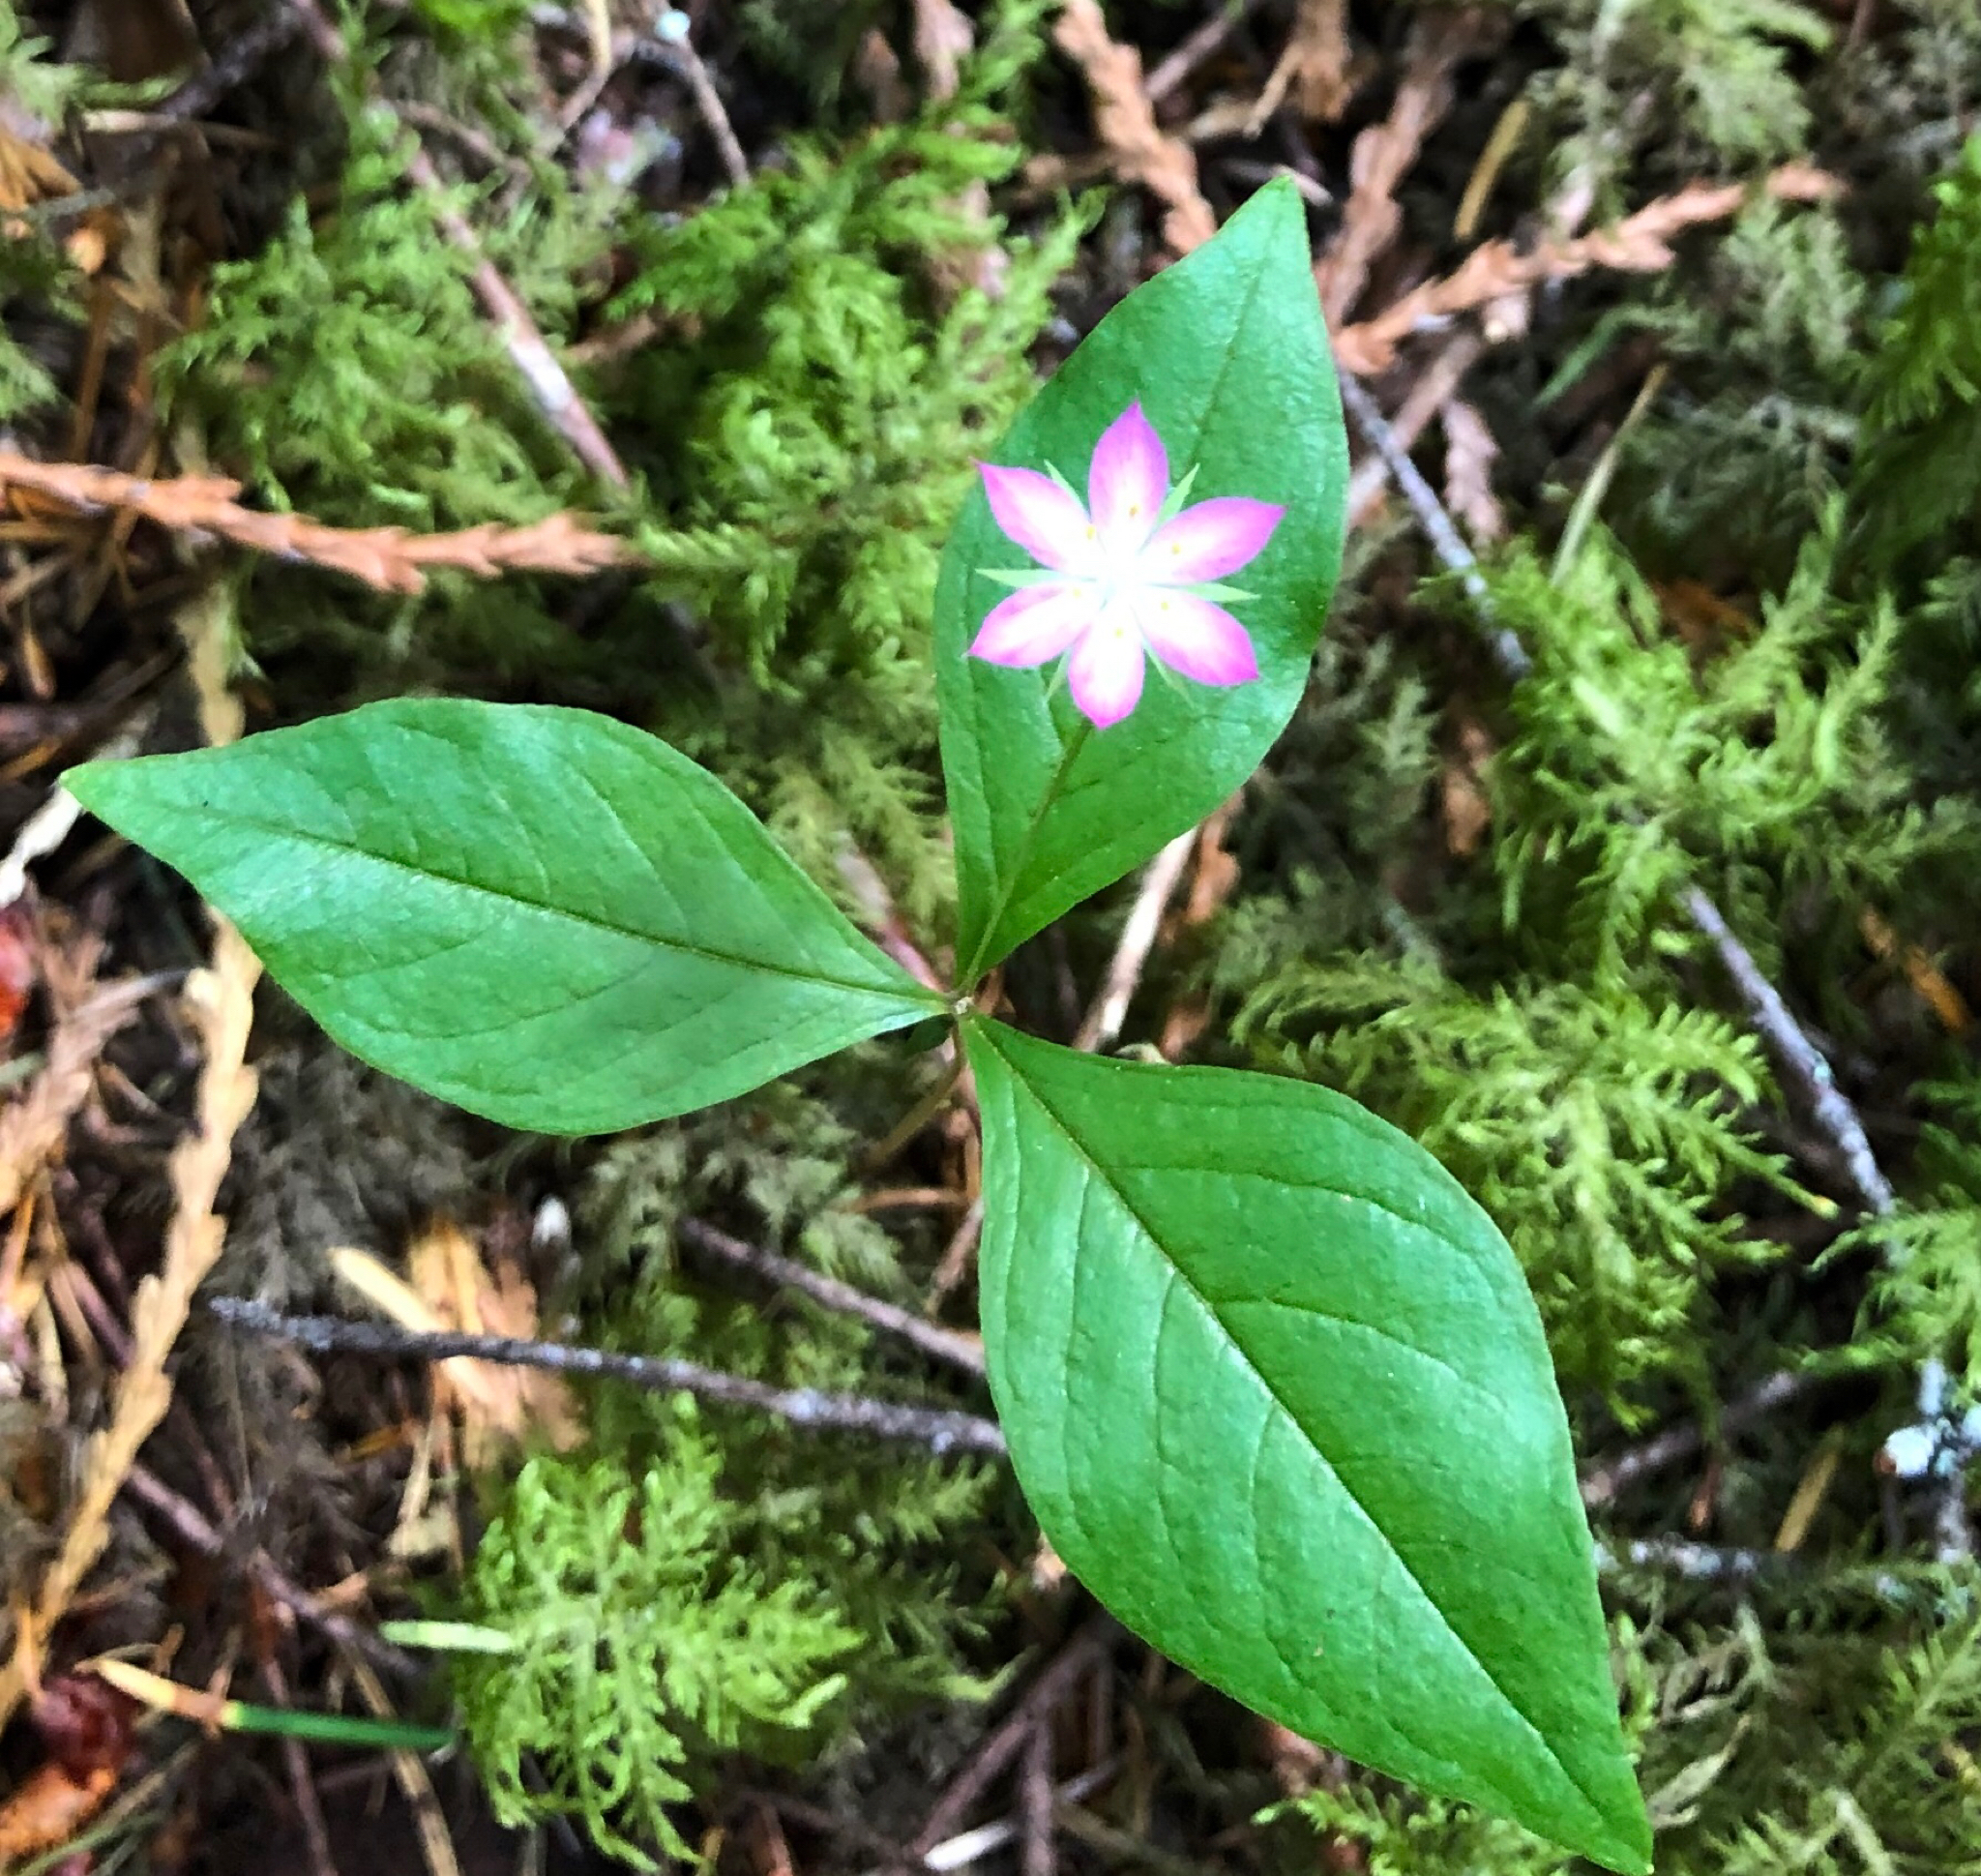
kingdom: Plantae
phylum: Tracheophyta
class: Magnoliopsida
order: Ericales
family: Primulaceae
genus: Lysimachia
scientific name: Lysimachia latifolia
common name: Pacific starflower
